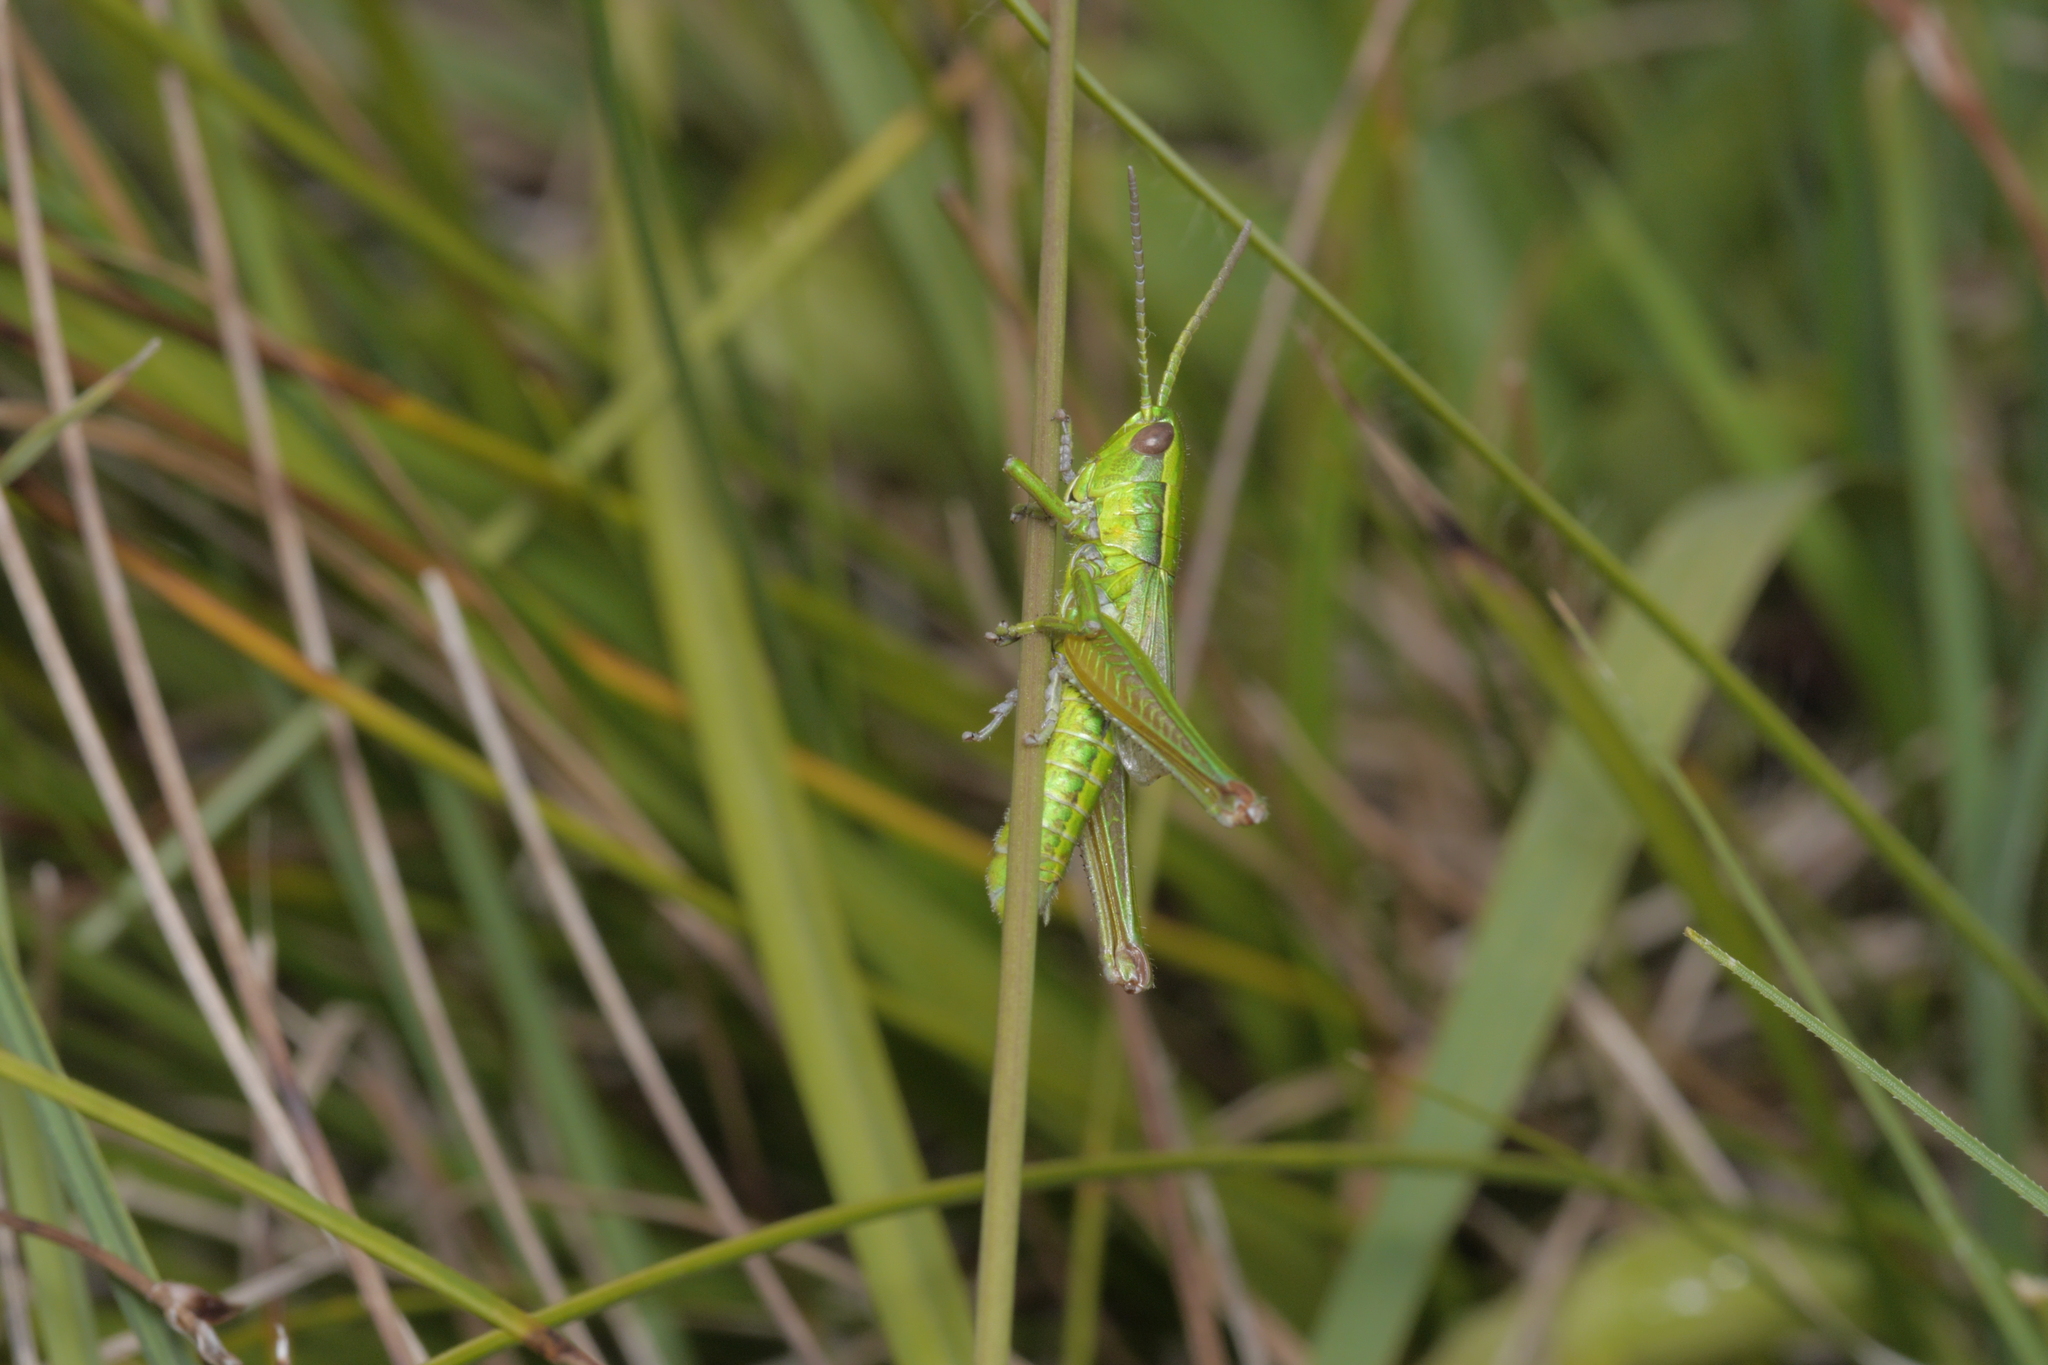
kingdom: Animalia
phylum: Arthropoda
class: Insecta
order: Orthoptera
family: Acrididae
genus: Euthystira
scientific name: Euthystira brachyptera
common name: Small gold grasshopper
